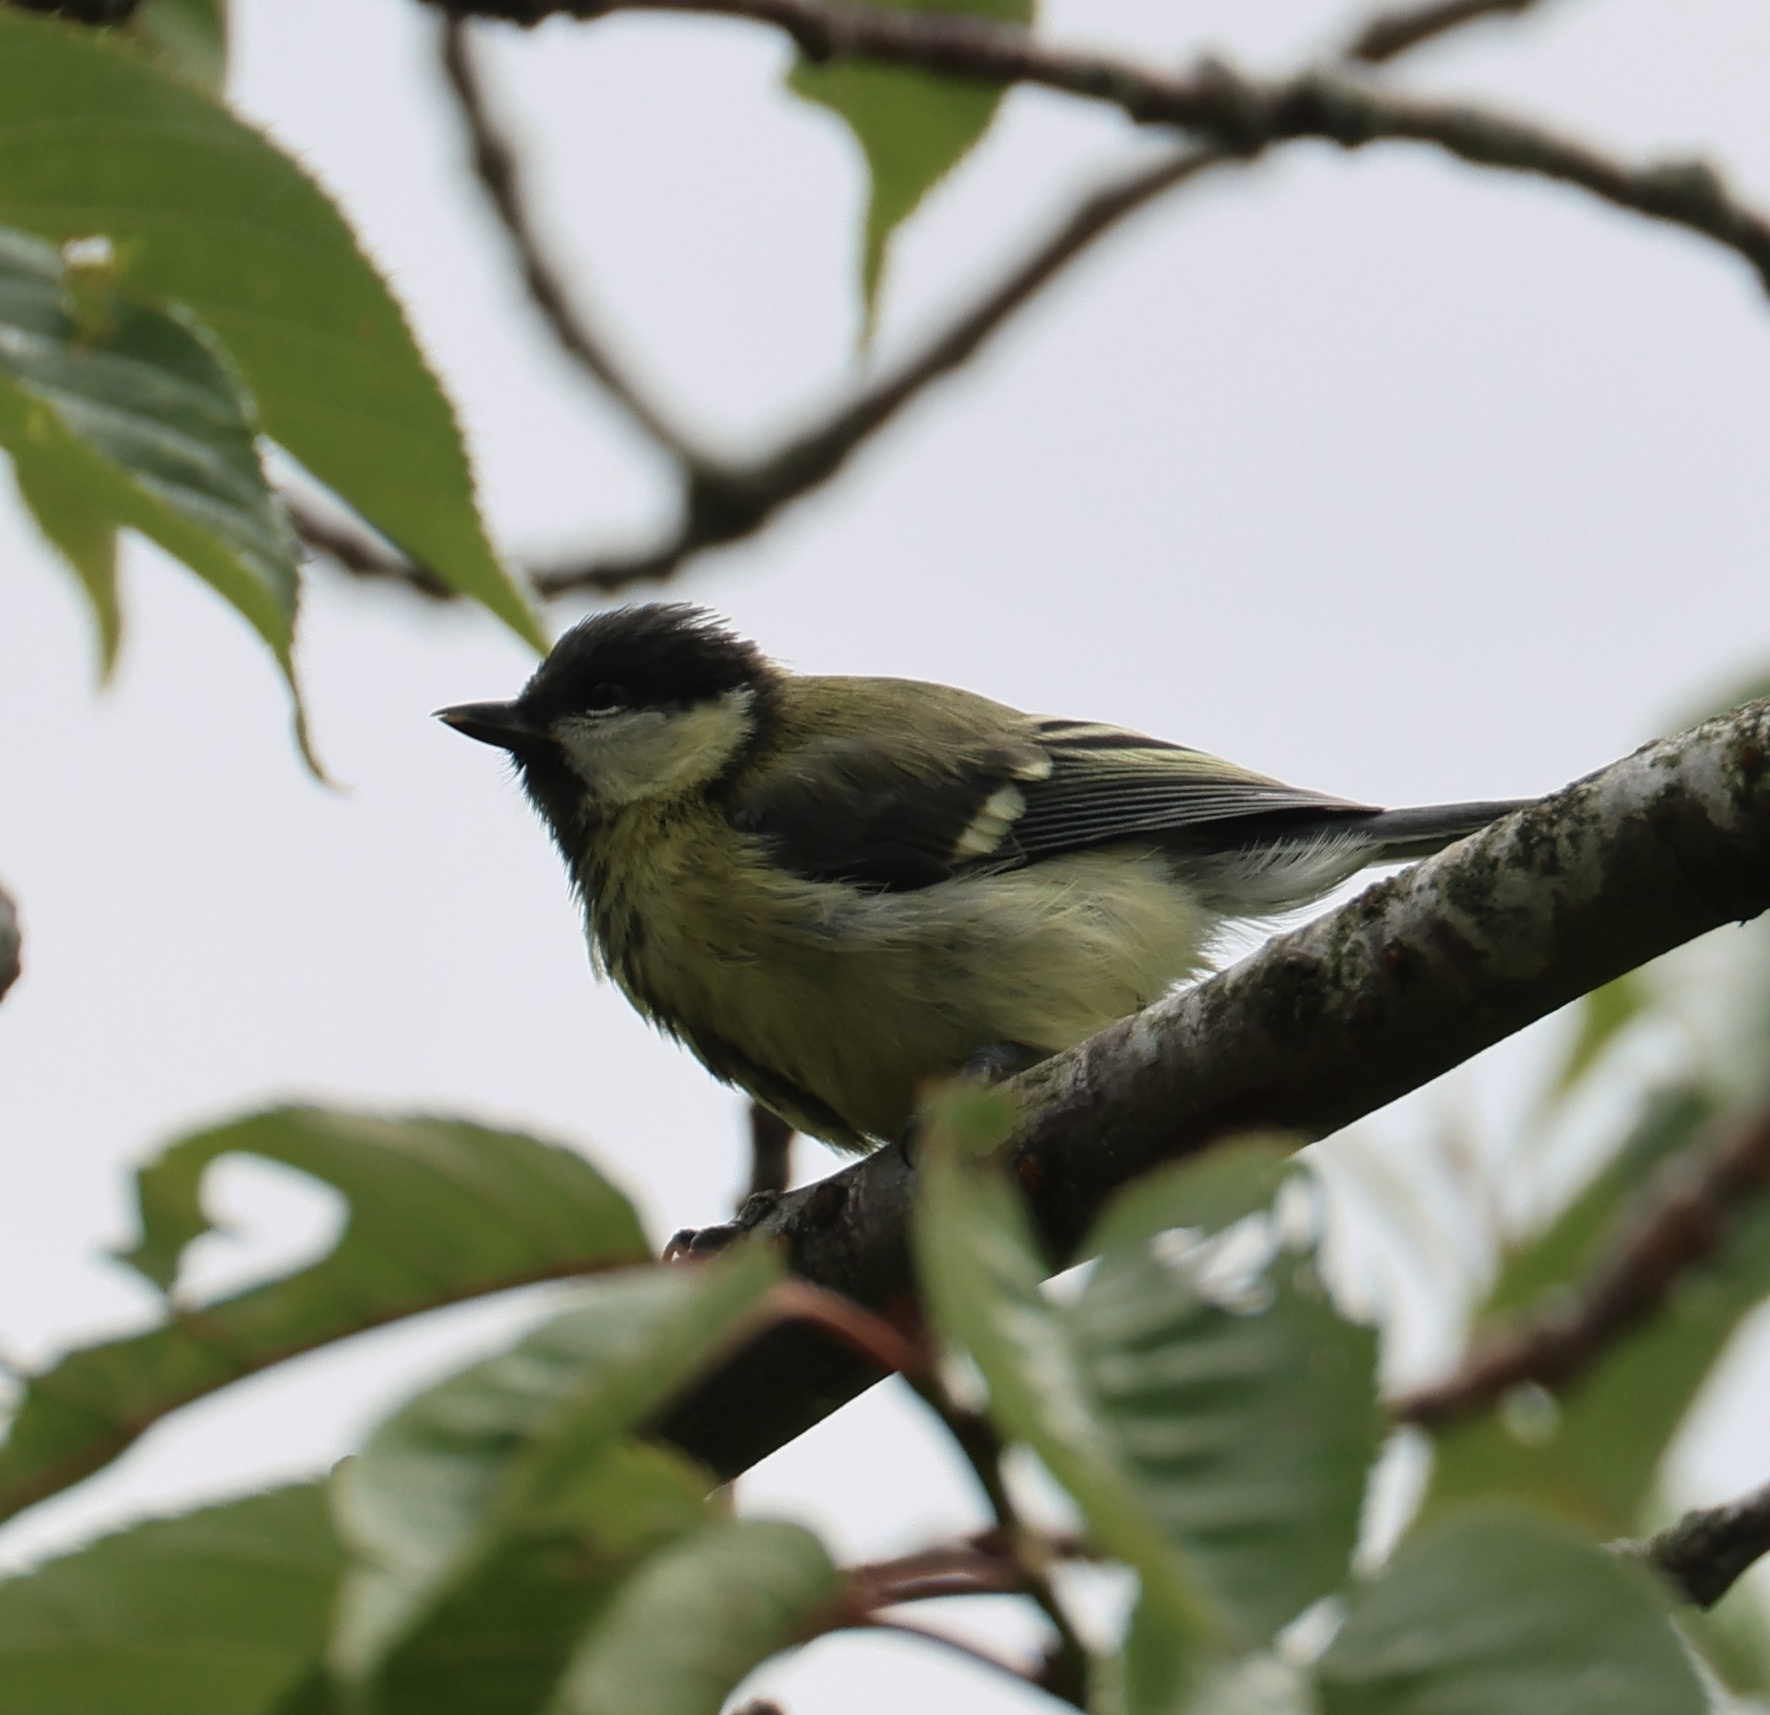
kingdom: Animalia
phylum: Chordata
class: Aves
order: Passeriformes
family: Paridae
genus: Parus
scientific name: Parus major
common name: Great tit
